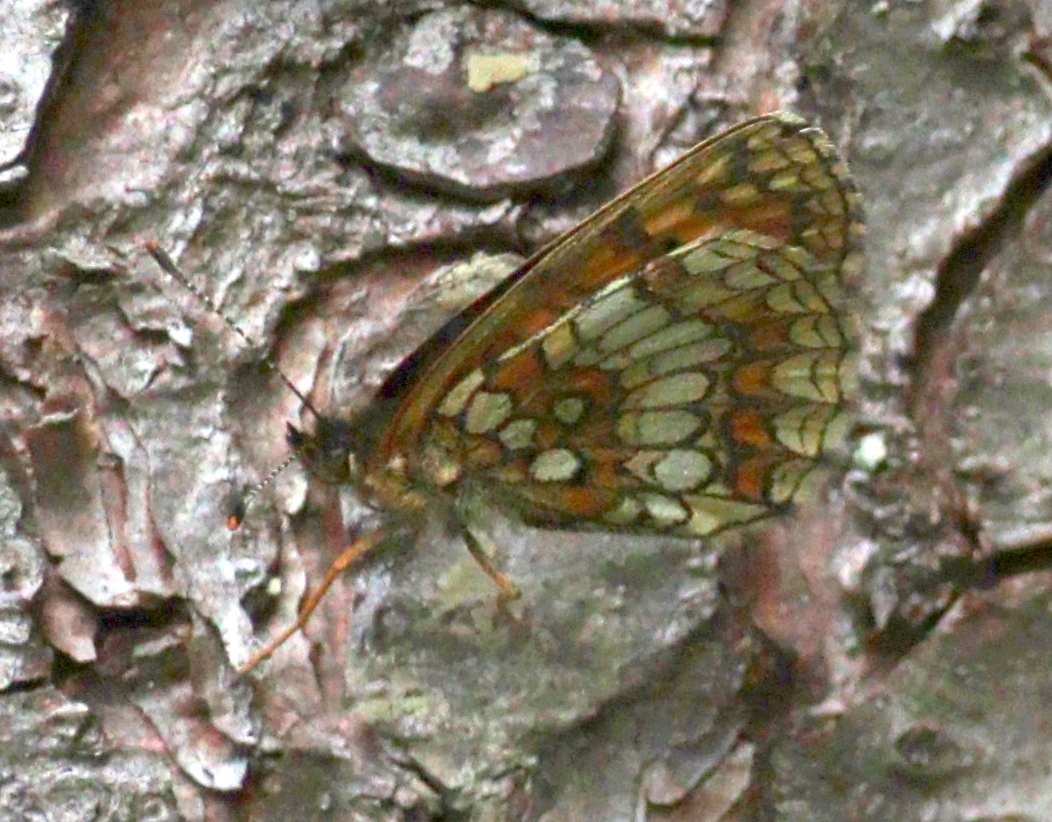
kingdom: Animalia
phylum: Arthropoda
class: Insecta
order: Lepidoptera
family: Nymphalidae
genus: Melitaea
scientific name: Melitaea athalia
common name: Heath fritillary
